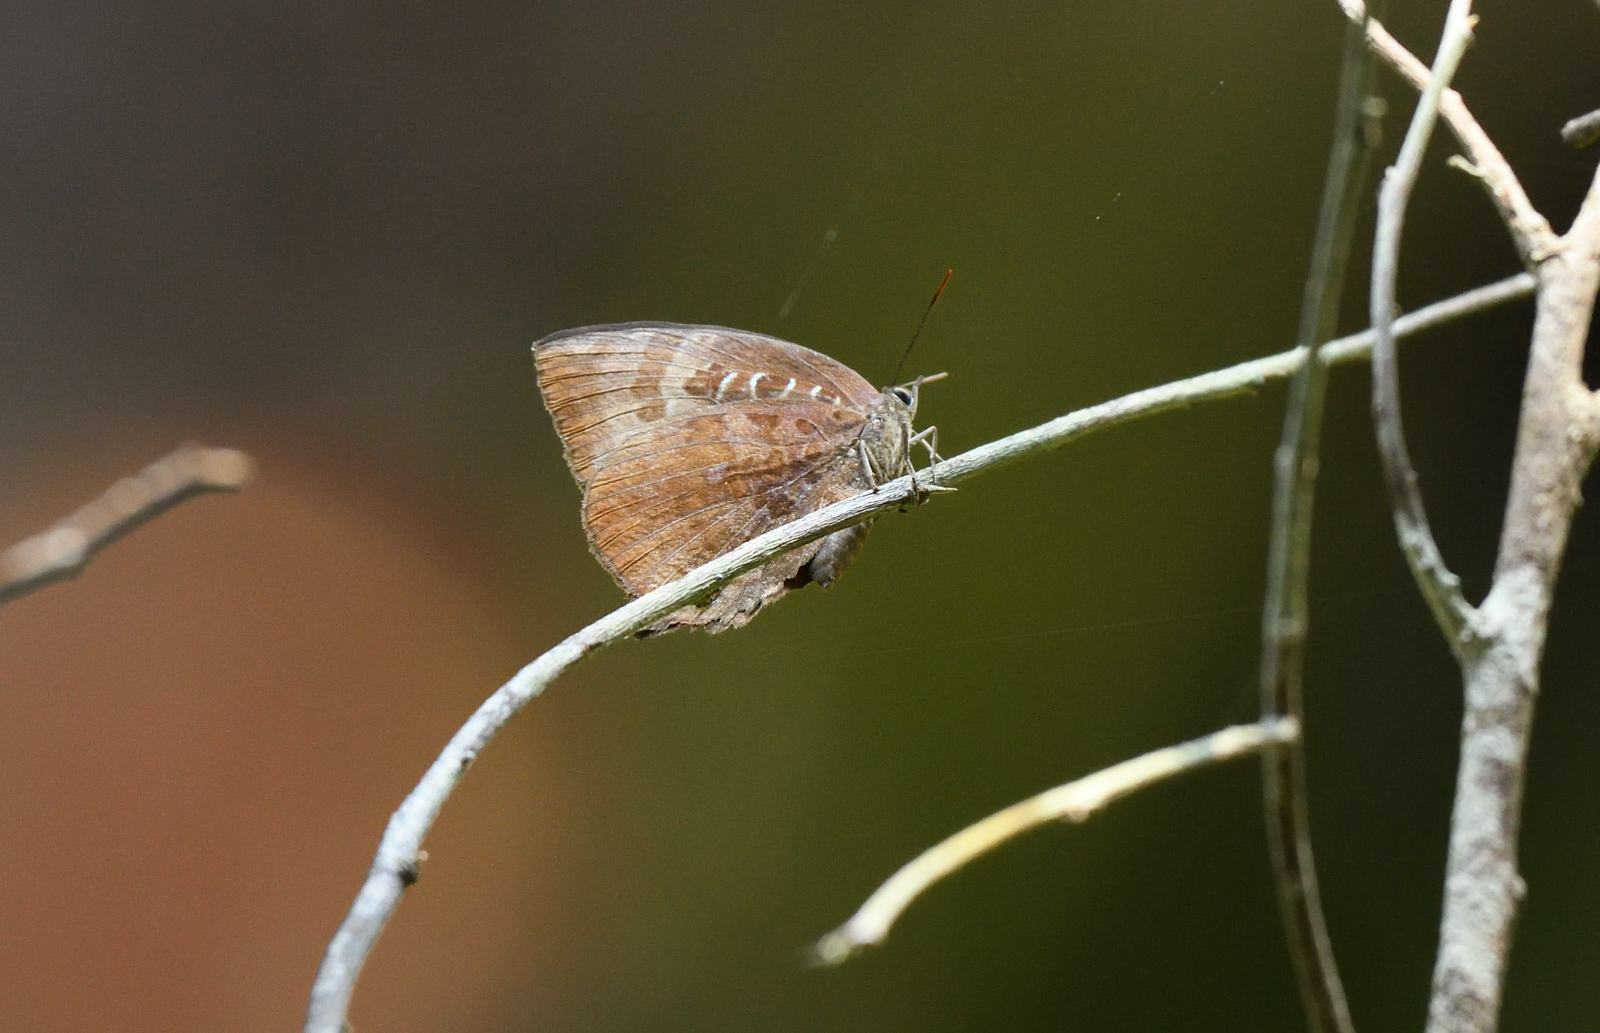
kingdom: Animalia
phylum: Arthropoda
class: Insecta
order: Lepidoptera
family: Lycaenidae
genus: Arhopala
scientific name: Arhopala centaurus
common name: Dull oak-blue
